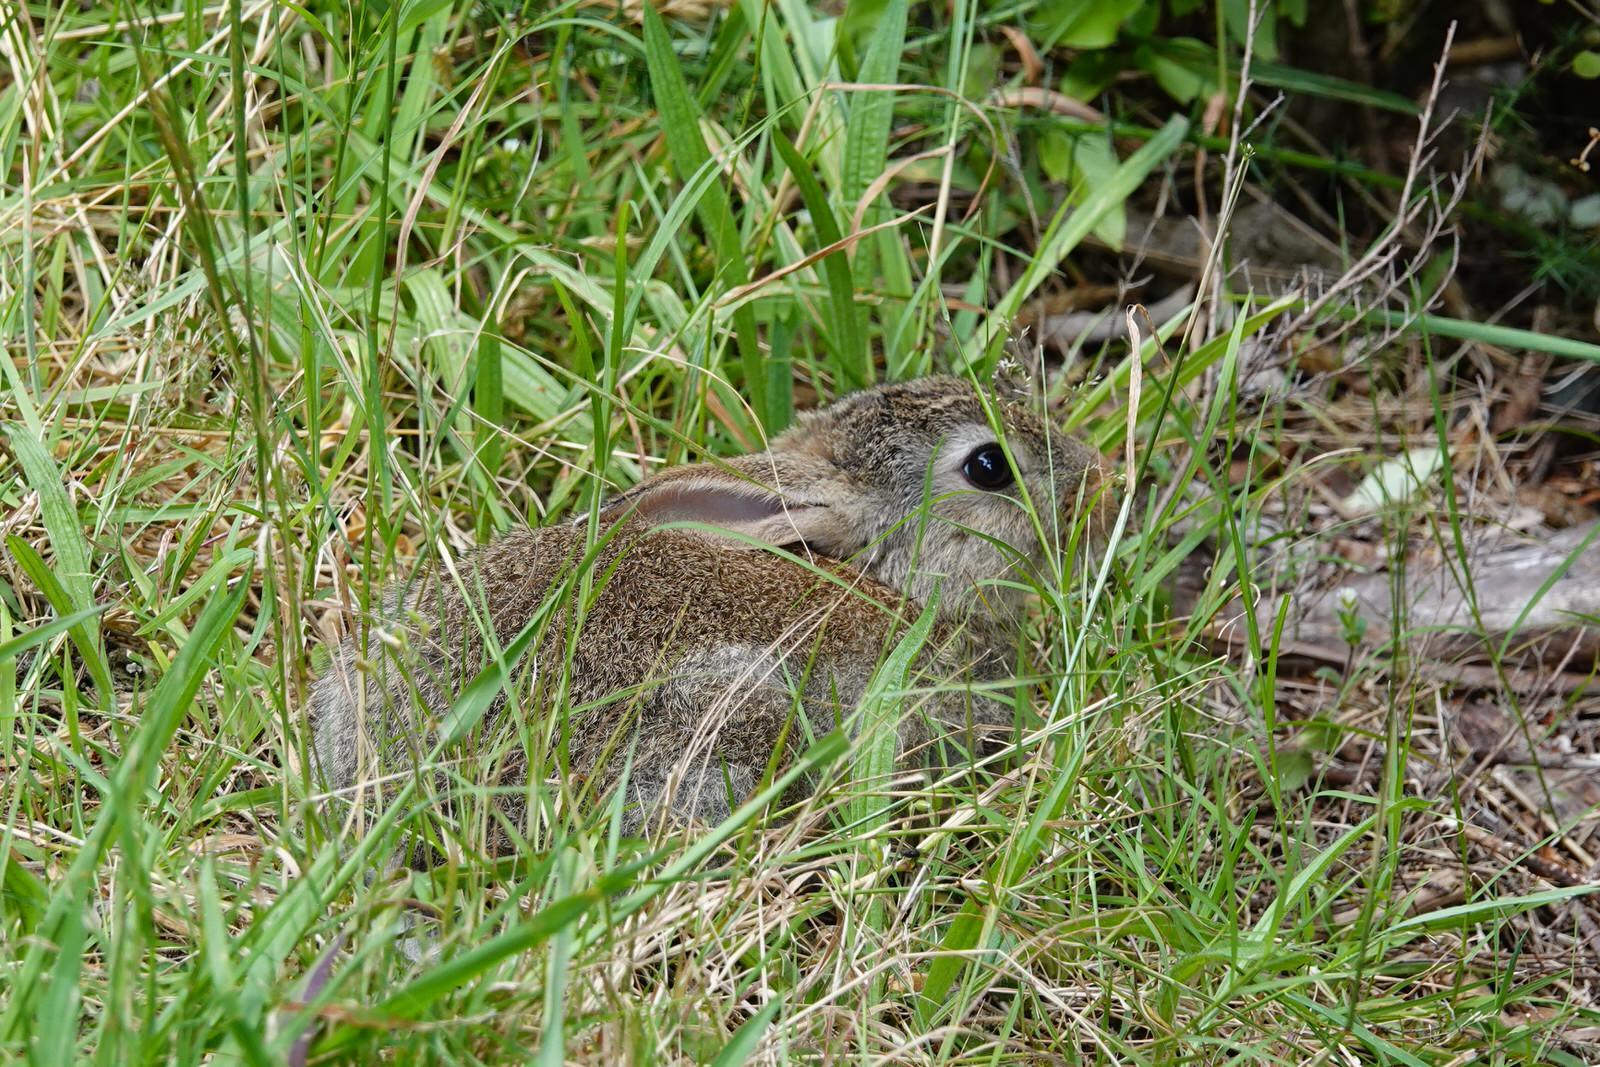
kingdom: Animalia
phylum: Chordata
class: Mammalia
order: Lagomorpha
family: Leporidae
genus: Oryctolagus
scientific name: Oryctolagus cuniculus
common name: European rabbit
